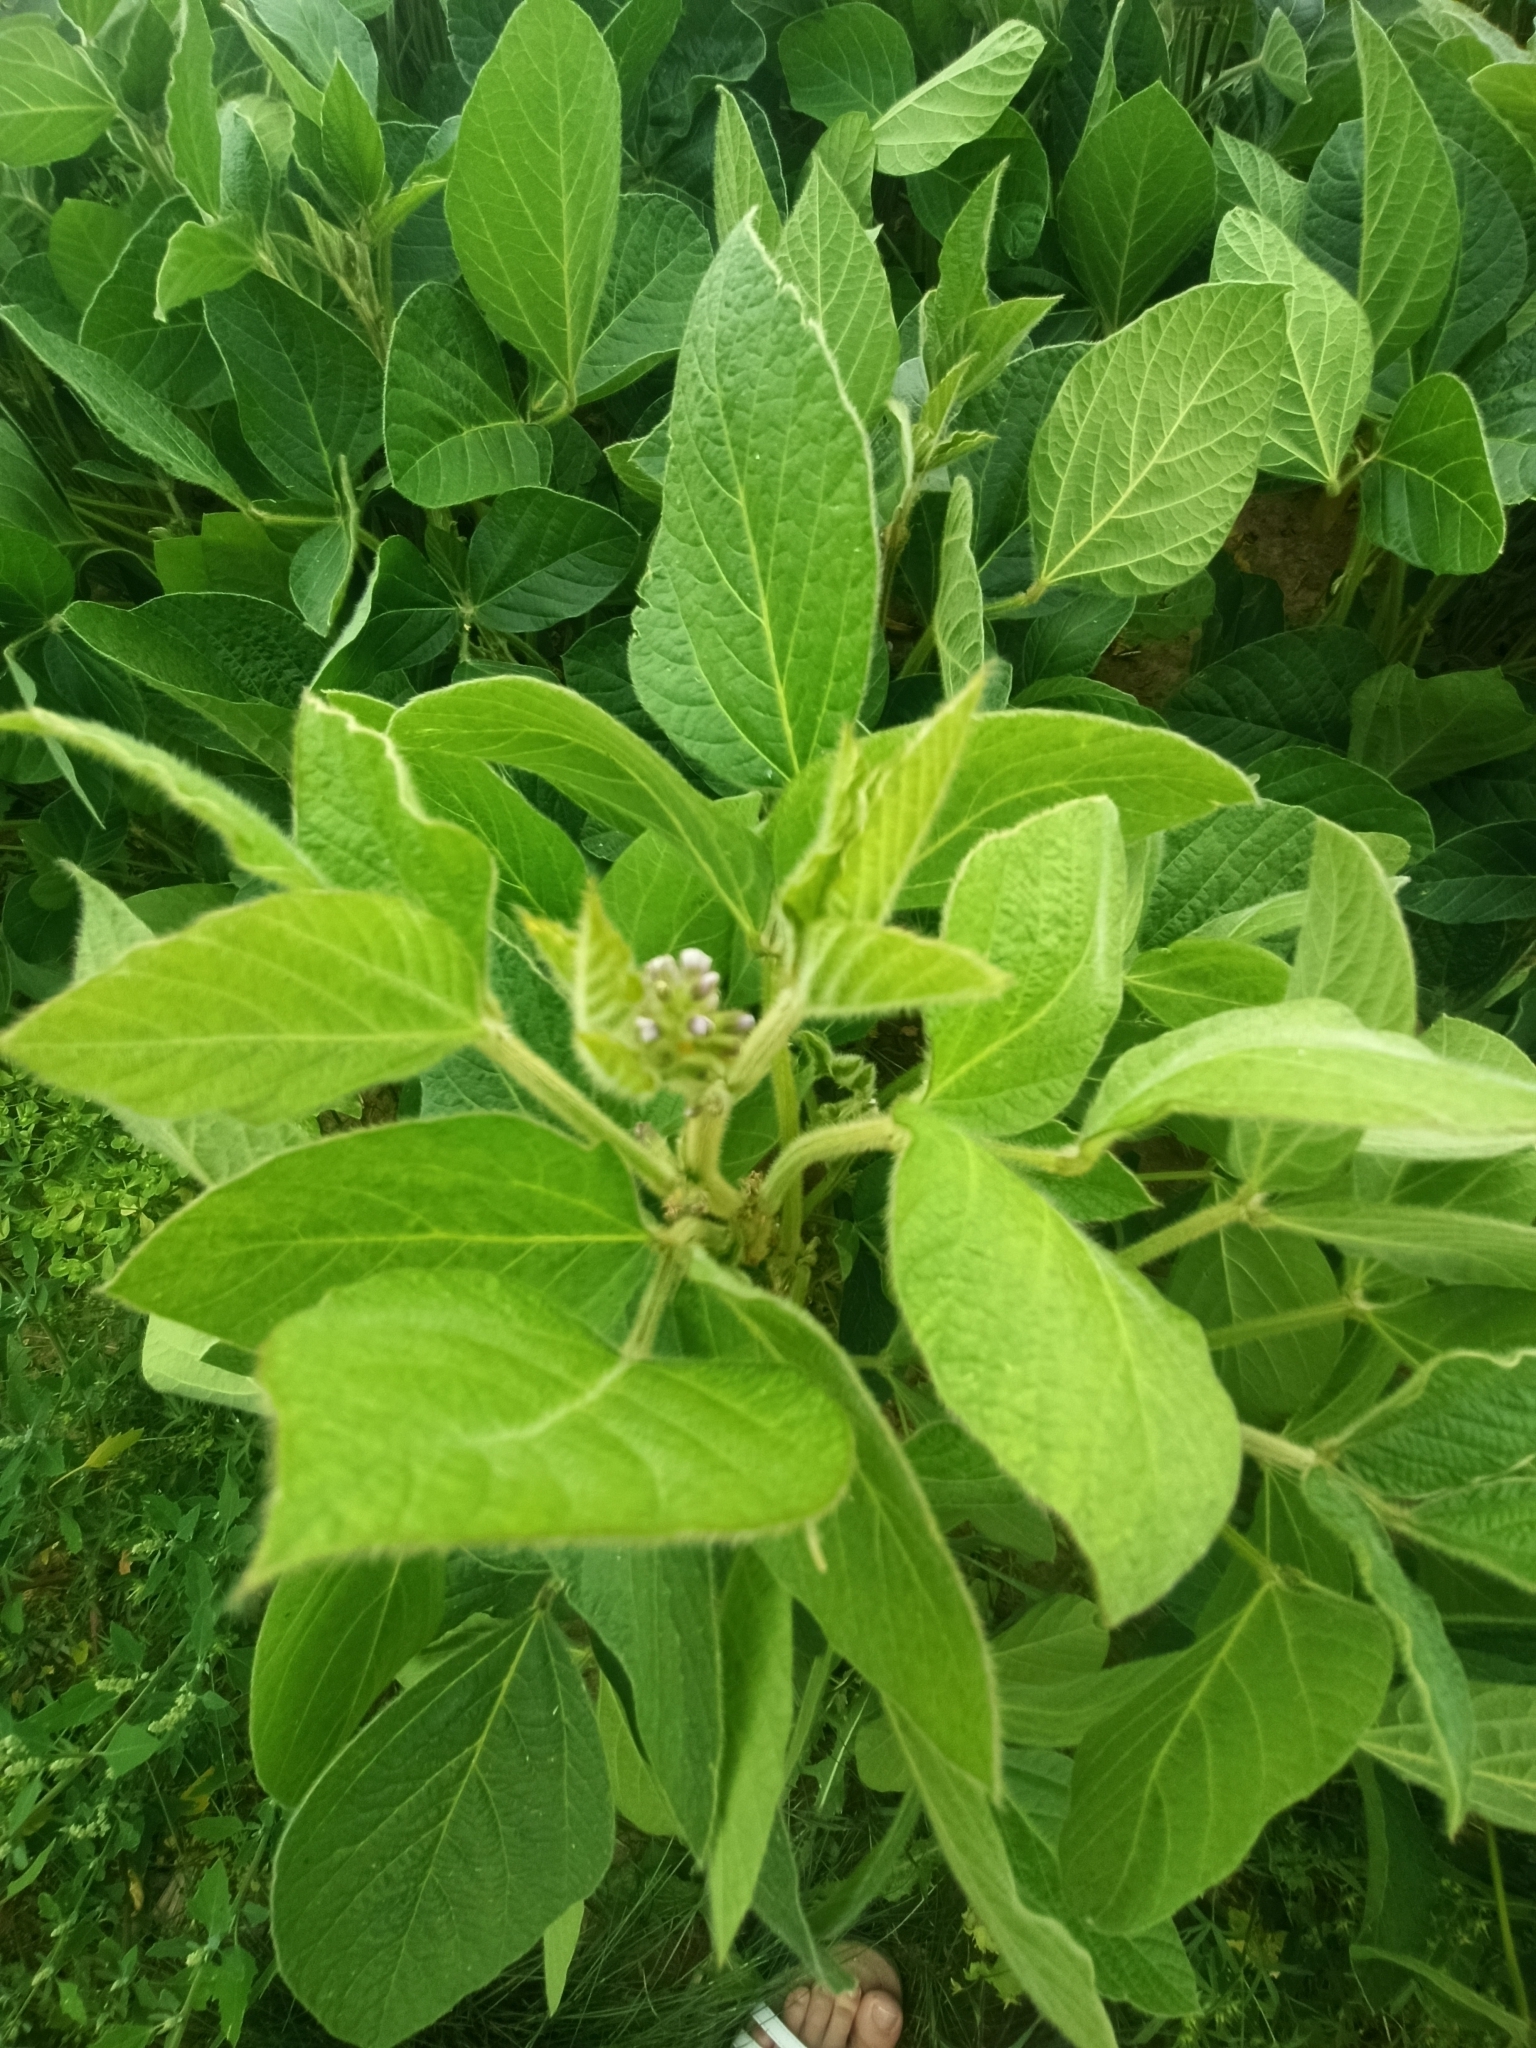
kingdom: Plantae
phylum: Tracheophyta
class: Magnoliopsida
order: Fabales
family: Fabaceae
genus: Glycine
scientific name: Glycine max
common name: Soya-bean
